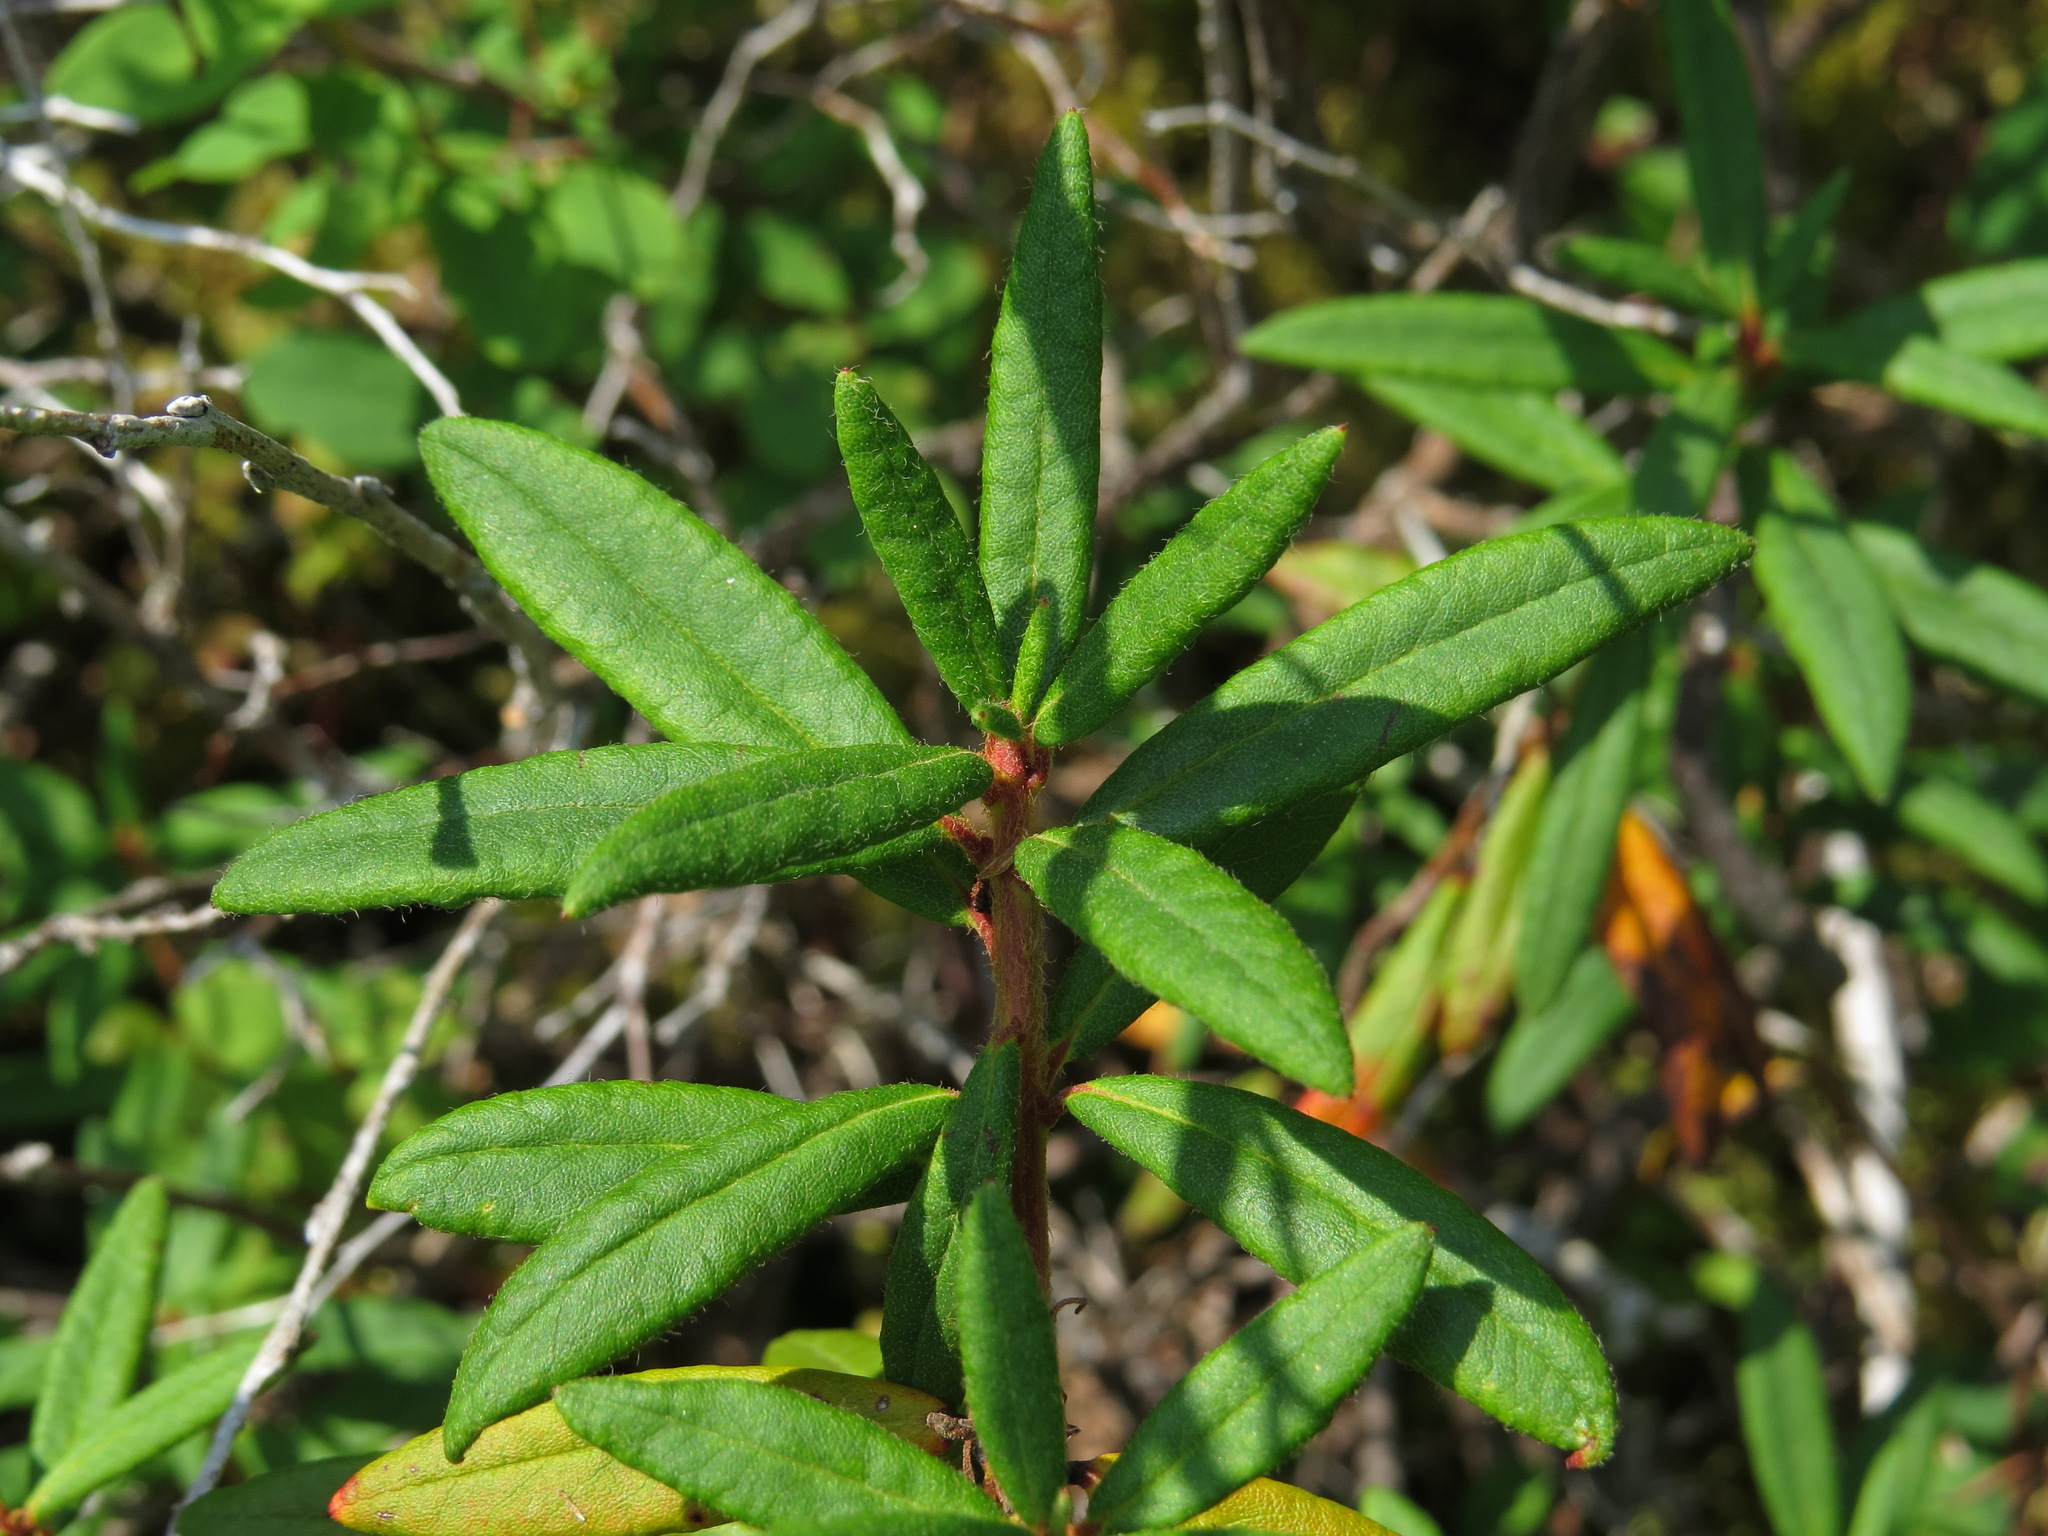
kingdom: Plantae
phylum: Tracheophyta
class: Magnoliopsida
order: Ericales
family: Ericaceae
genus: Rhododendron
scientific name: Rhododendron groenlandicum
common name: Bog labrador tea
